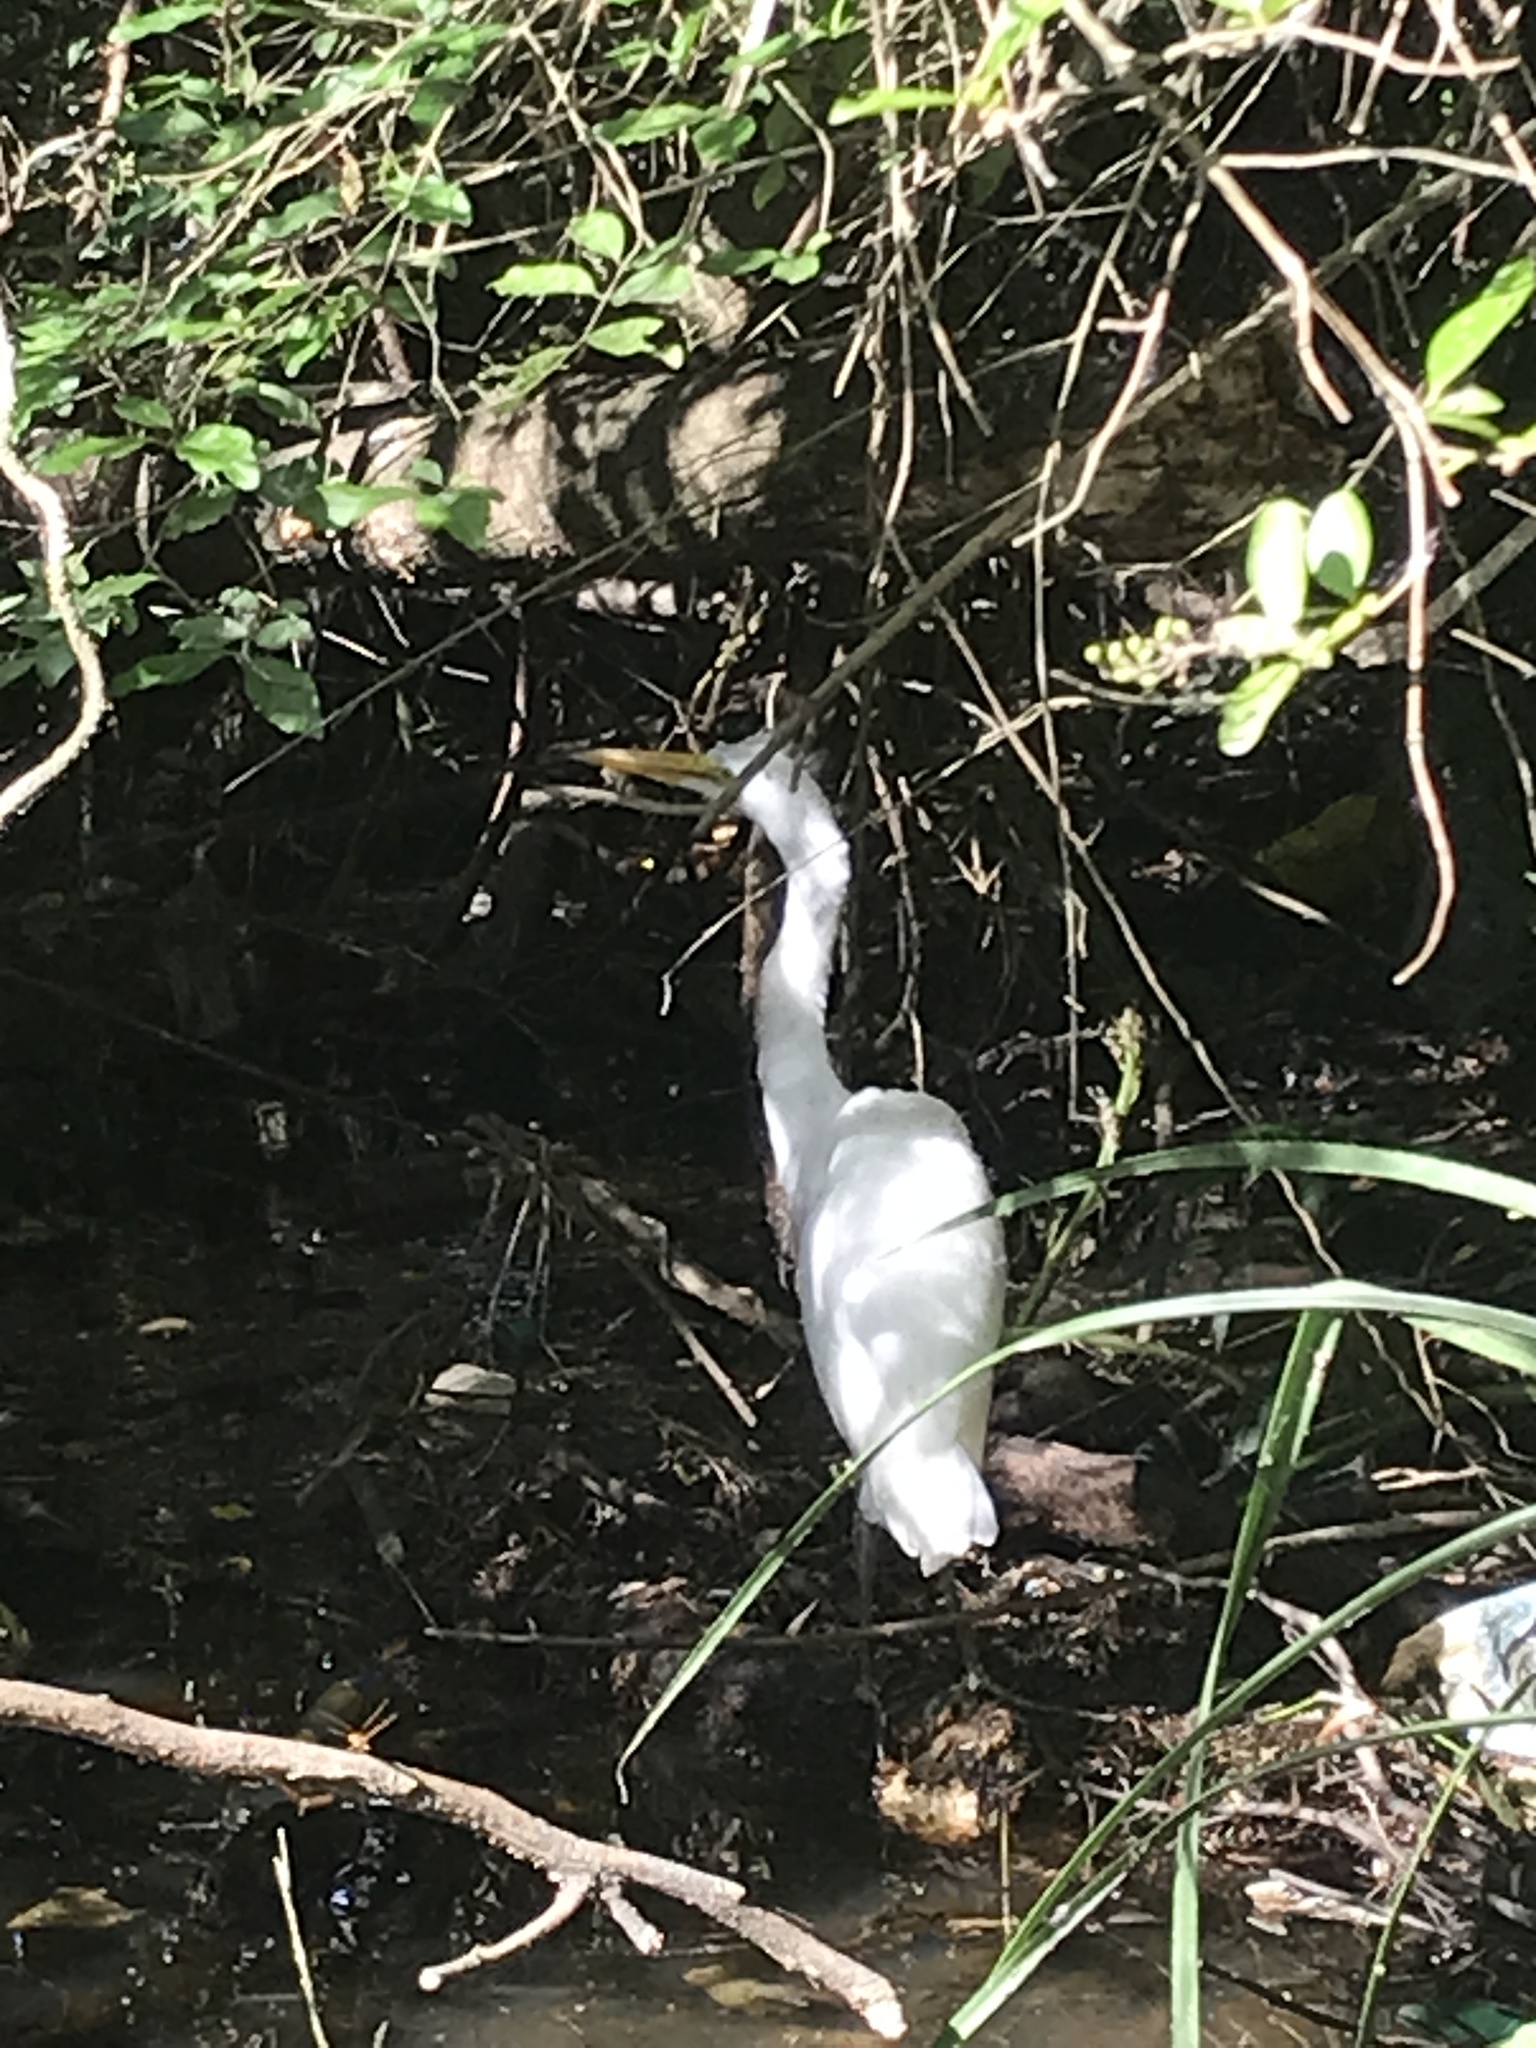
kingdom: Animalia
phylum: Chordata
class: Aves
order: Pelecaniformes
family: Ardeidae
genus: Ardea
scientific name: Ardea alba
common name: Great egret
